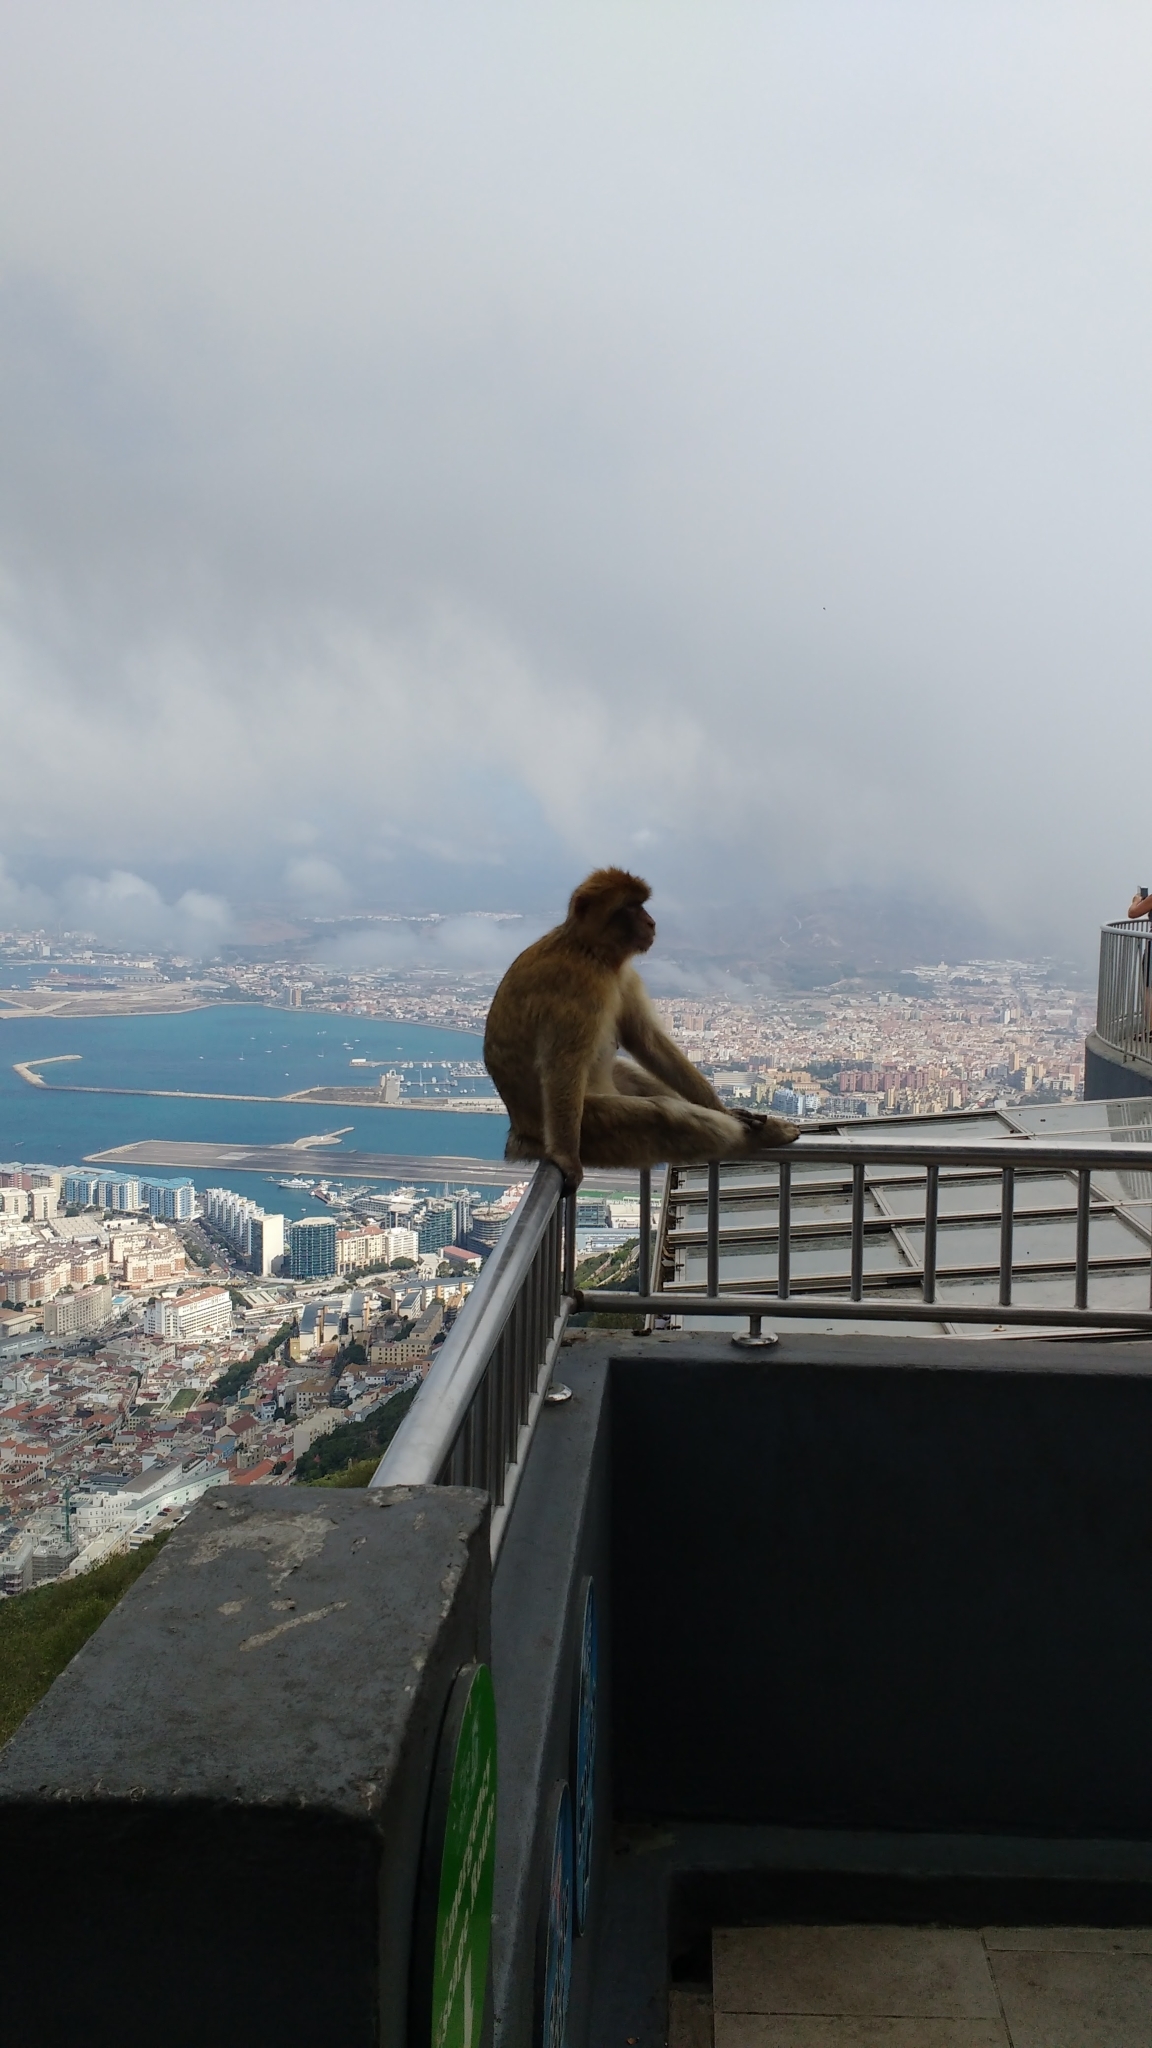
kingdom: Animalia
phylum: Chordata
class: Mammalia
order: Primates
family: Cercopithecidae
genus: Macaca
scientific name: Macaca sylvanus
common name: Barbary macaque
